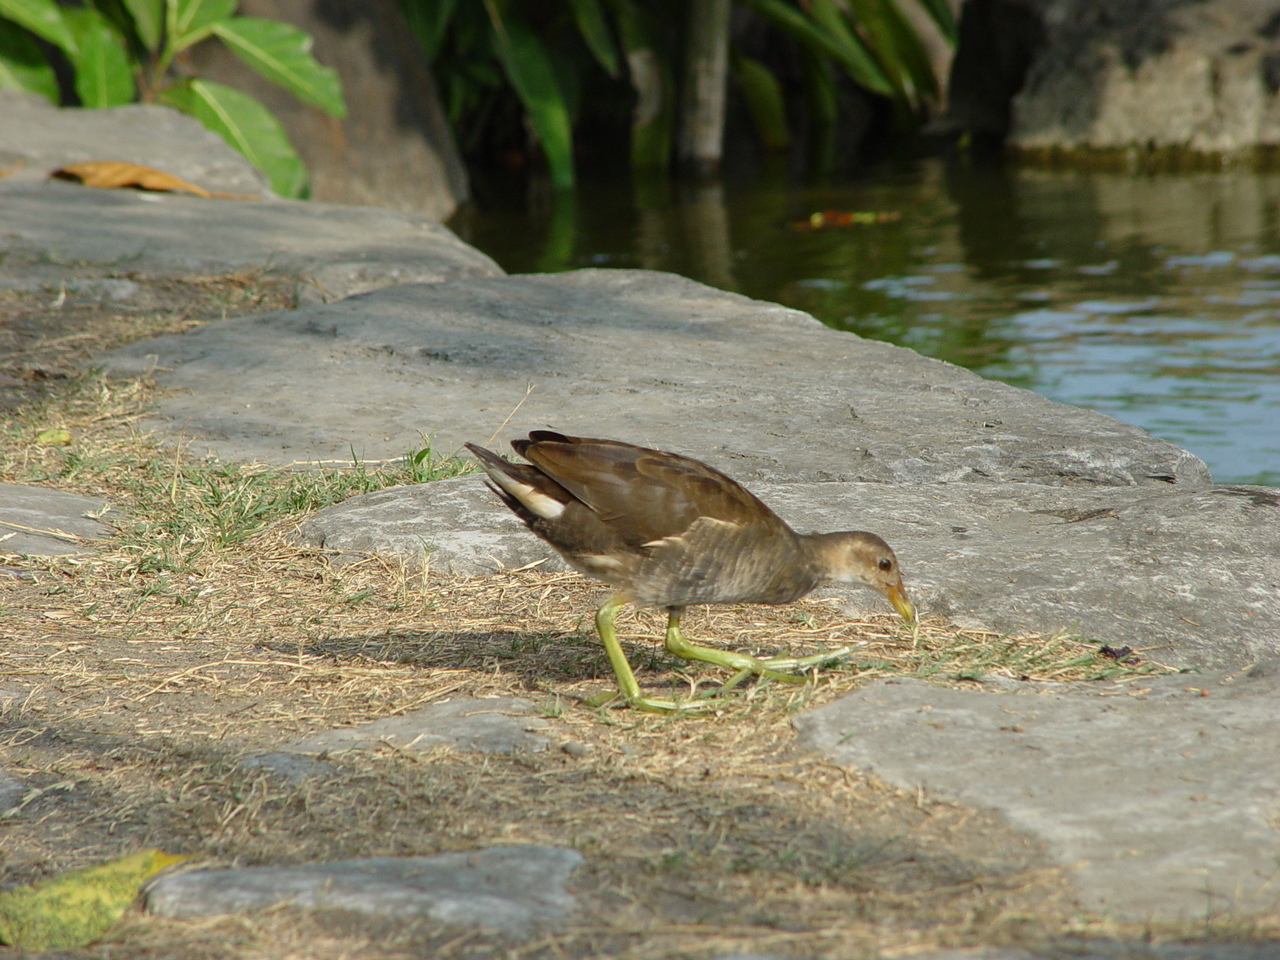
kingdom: Animalia
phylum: Chordata
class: Aves
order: Gruiformes
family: Rallidae
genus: Gallinula
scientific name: Gallinula chloropus
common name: Common moorhen
